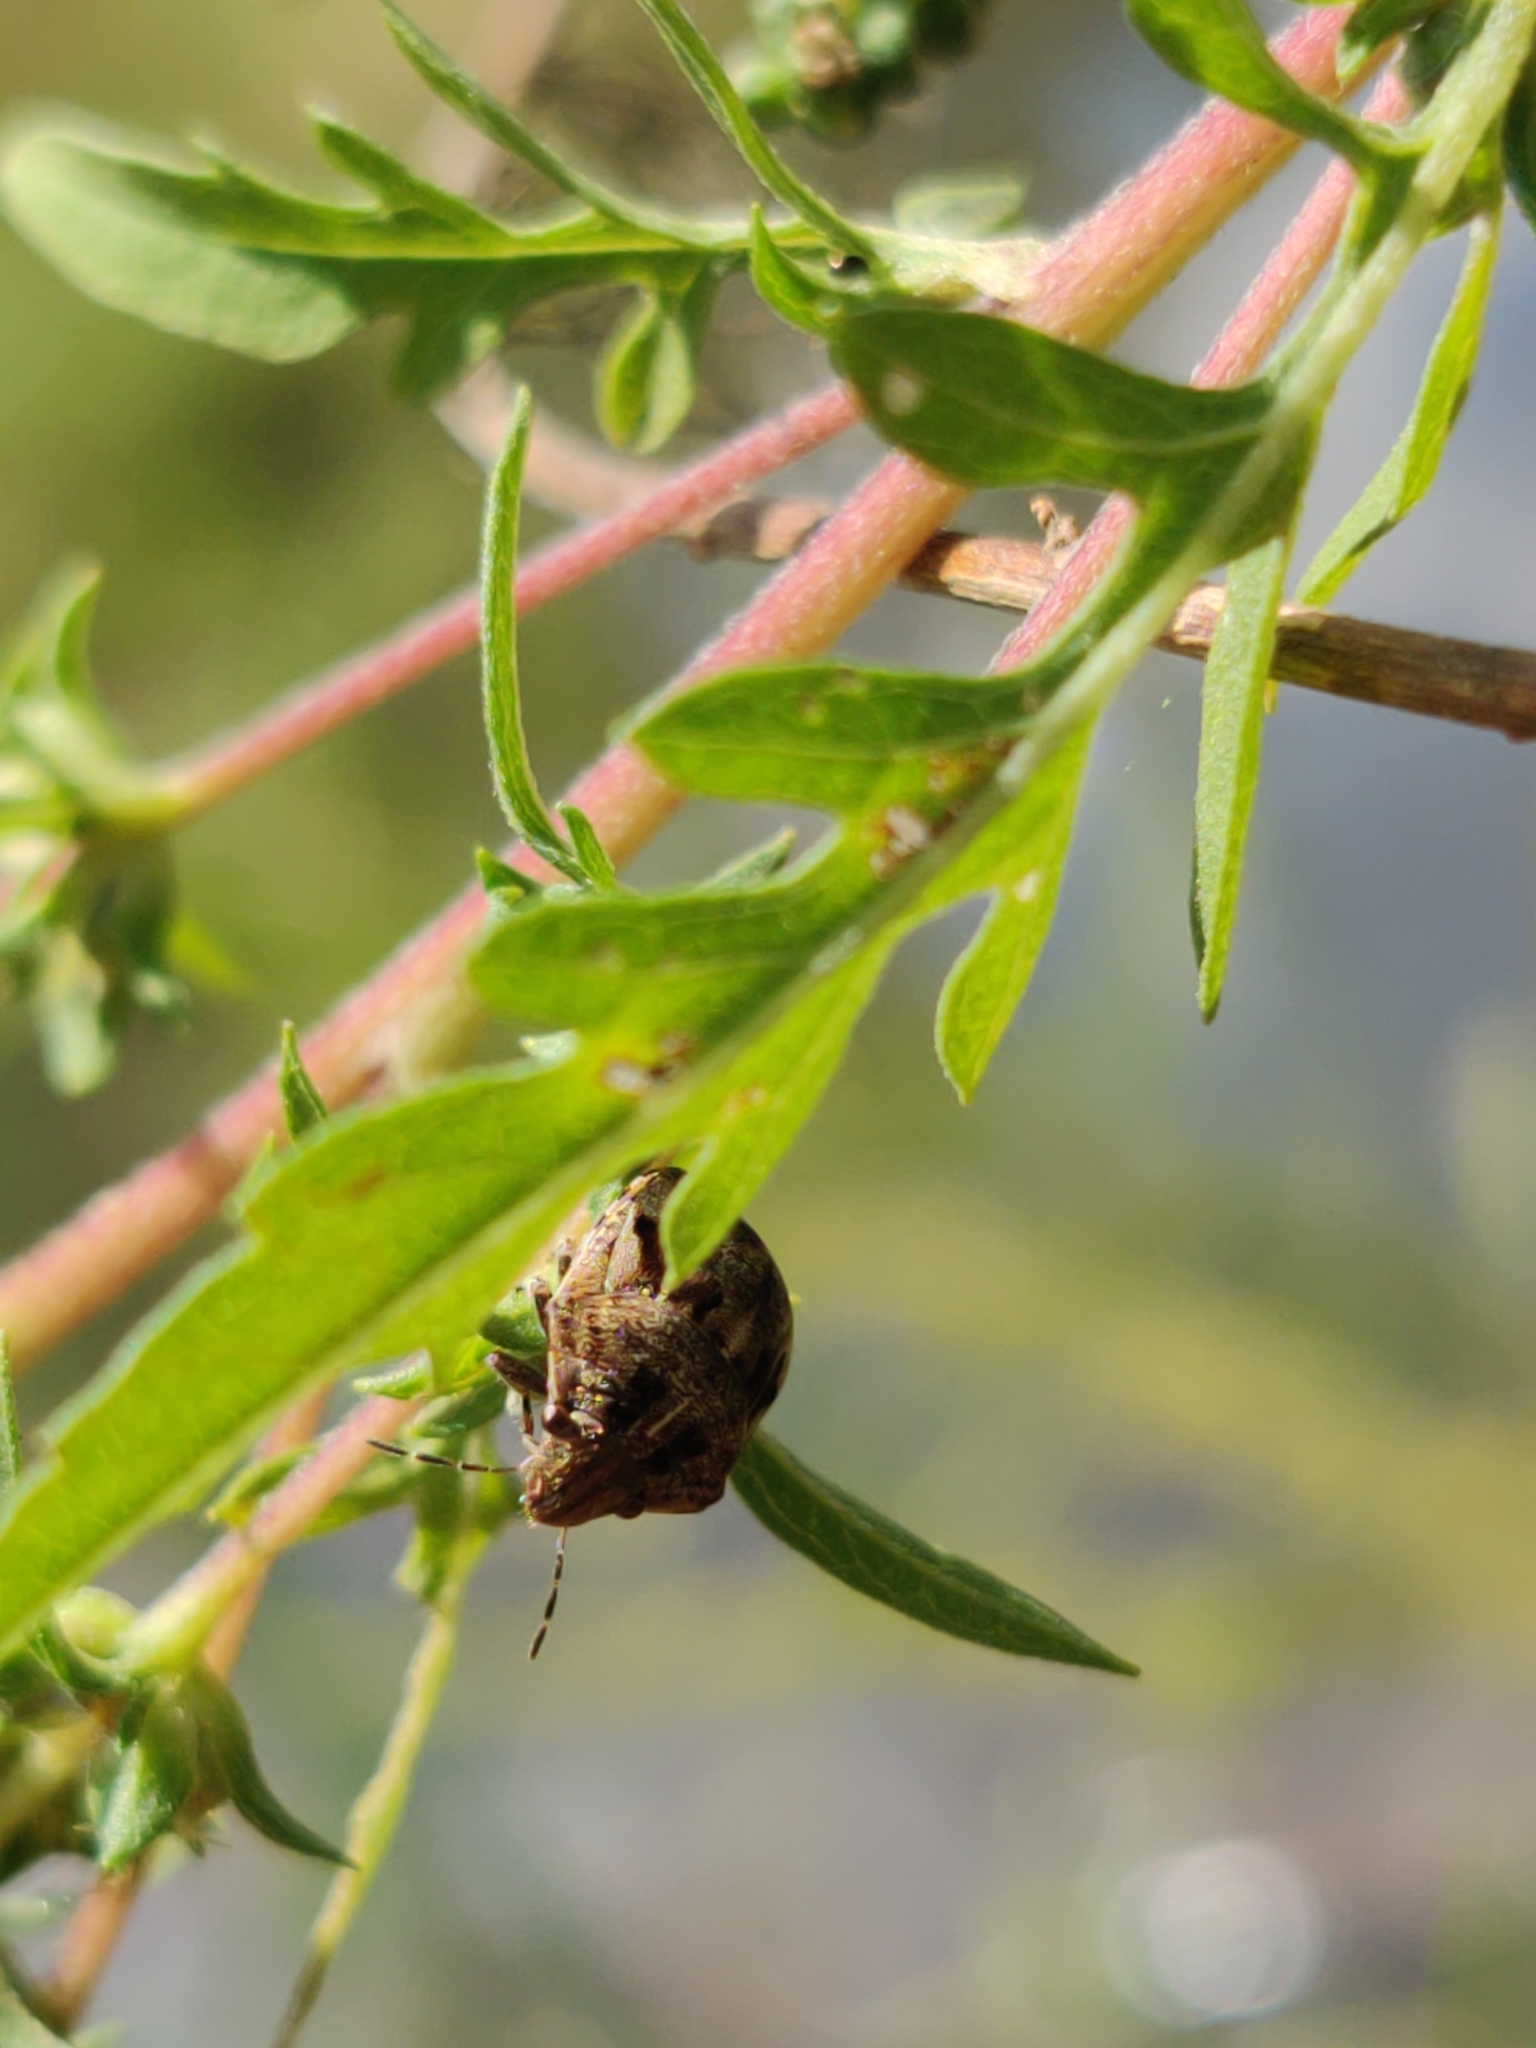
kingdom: Animalia
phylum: Arthropoda
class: Insecta
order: Hemiptera
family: Scutelleridae
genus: Homaemus
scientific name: Homaemus proteus
